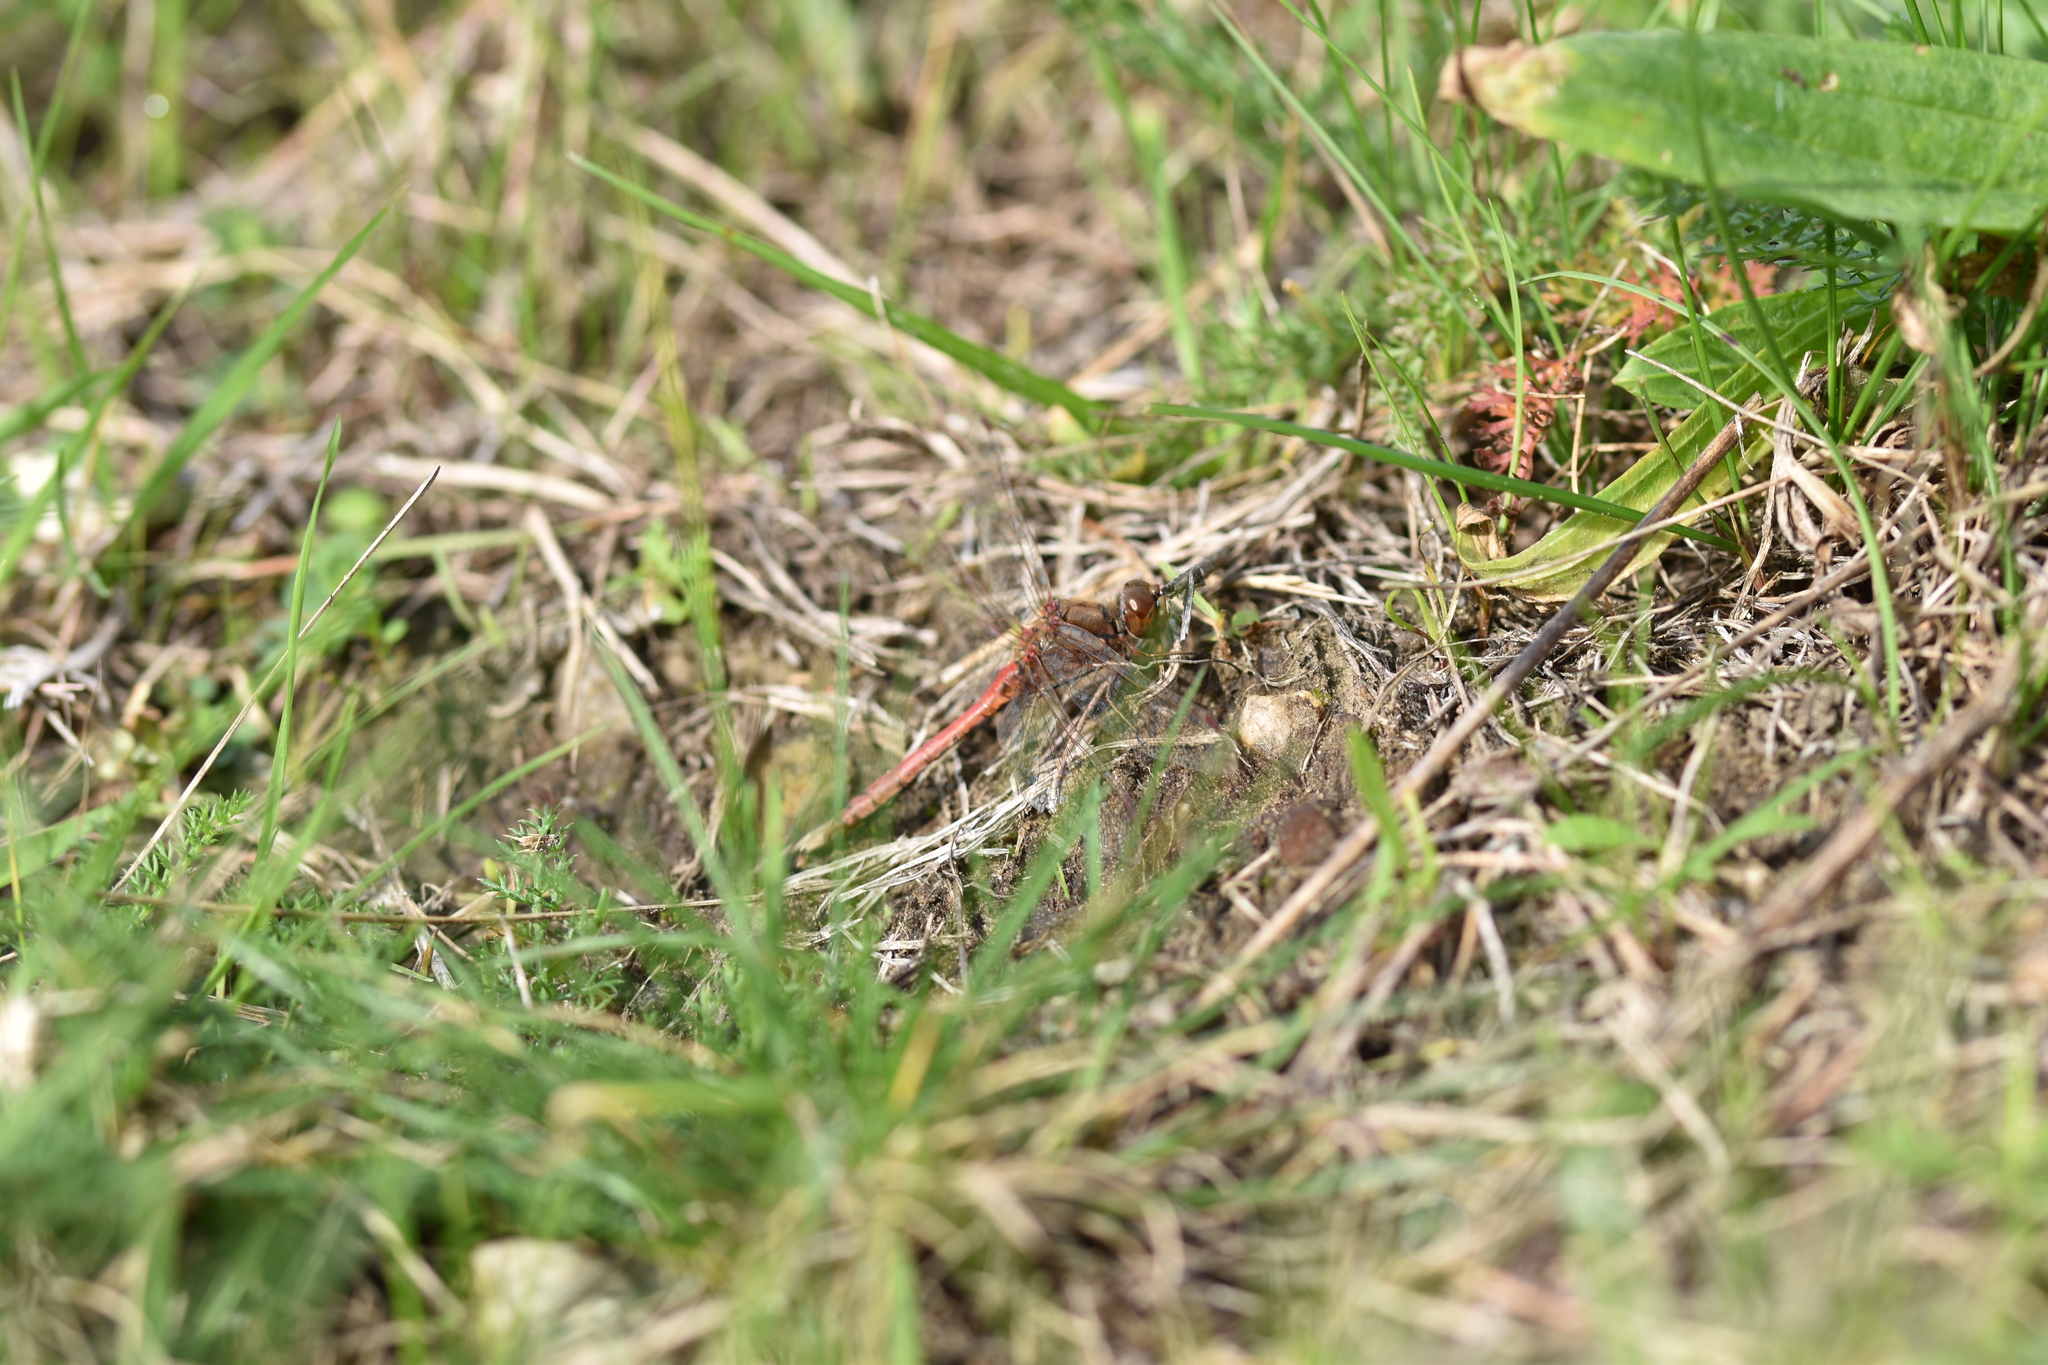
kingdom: Animalia
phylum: Arthropoda
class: Insecta
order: Odonata
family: Libellulidae
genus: Sympetrum
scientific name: Sympetrum vulgatum
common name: Vagrant darter
